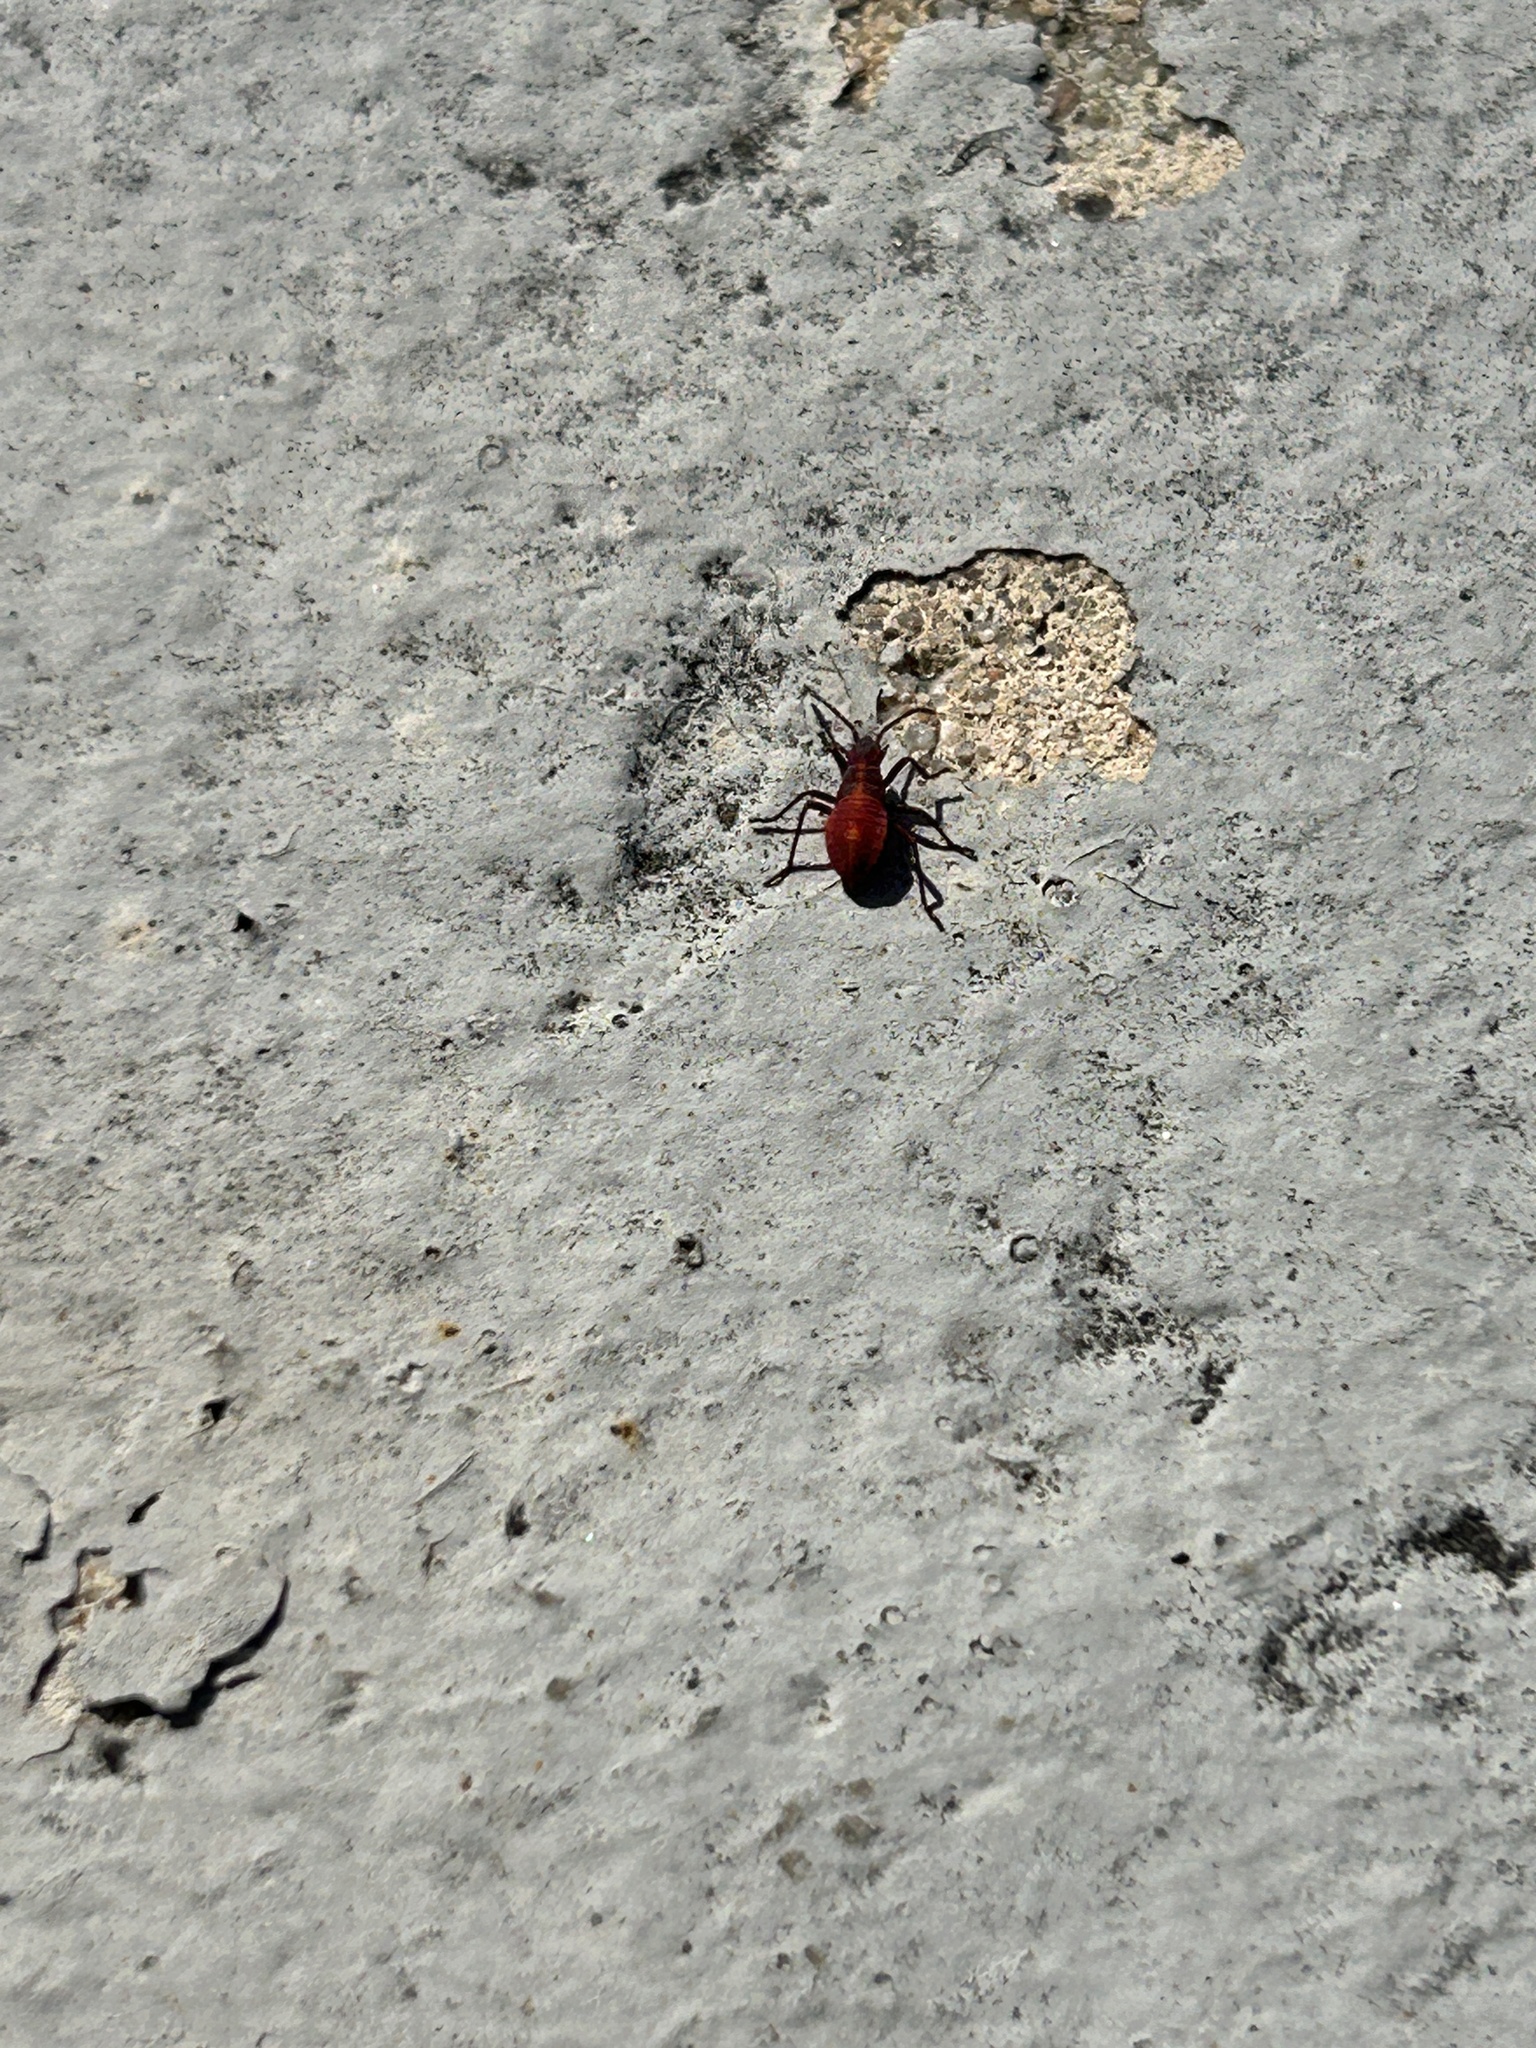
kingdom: Animalia
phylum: Arthropoda
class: Insecta
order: Hemiptera
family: Rhopalidae
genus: Boisea
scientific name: Boisea trivittata
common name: Boxelder bug
